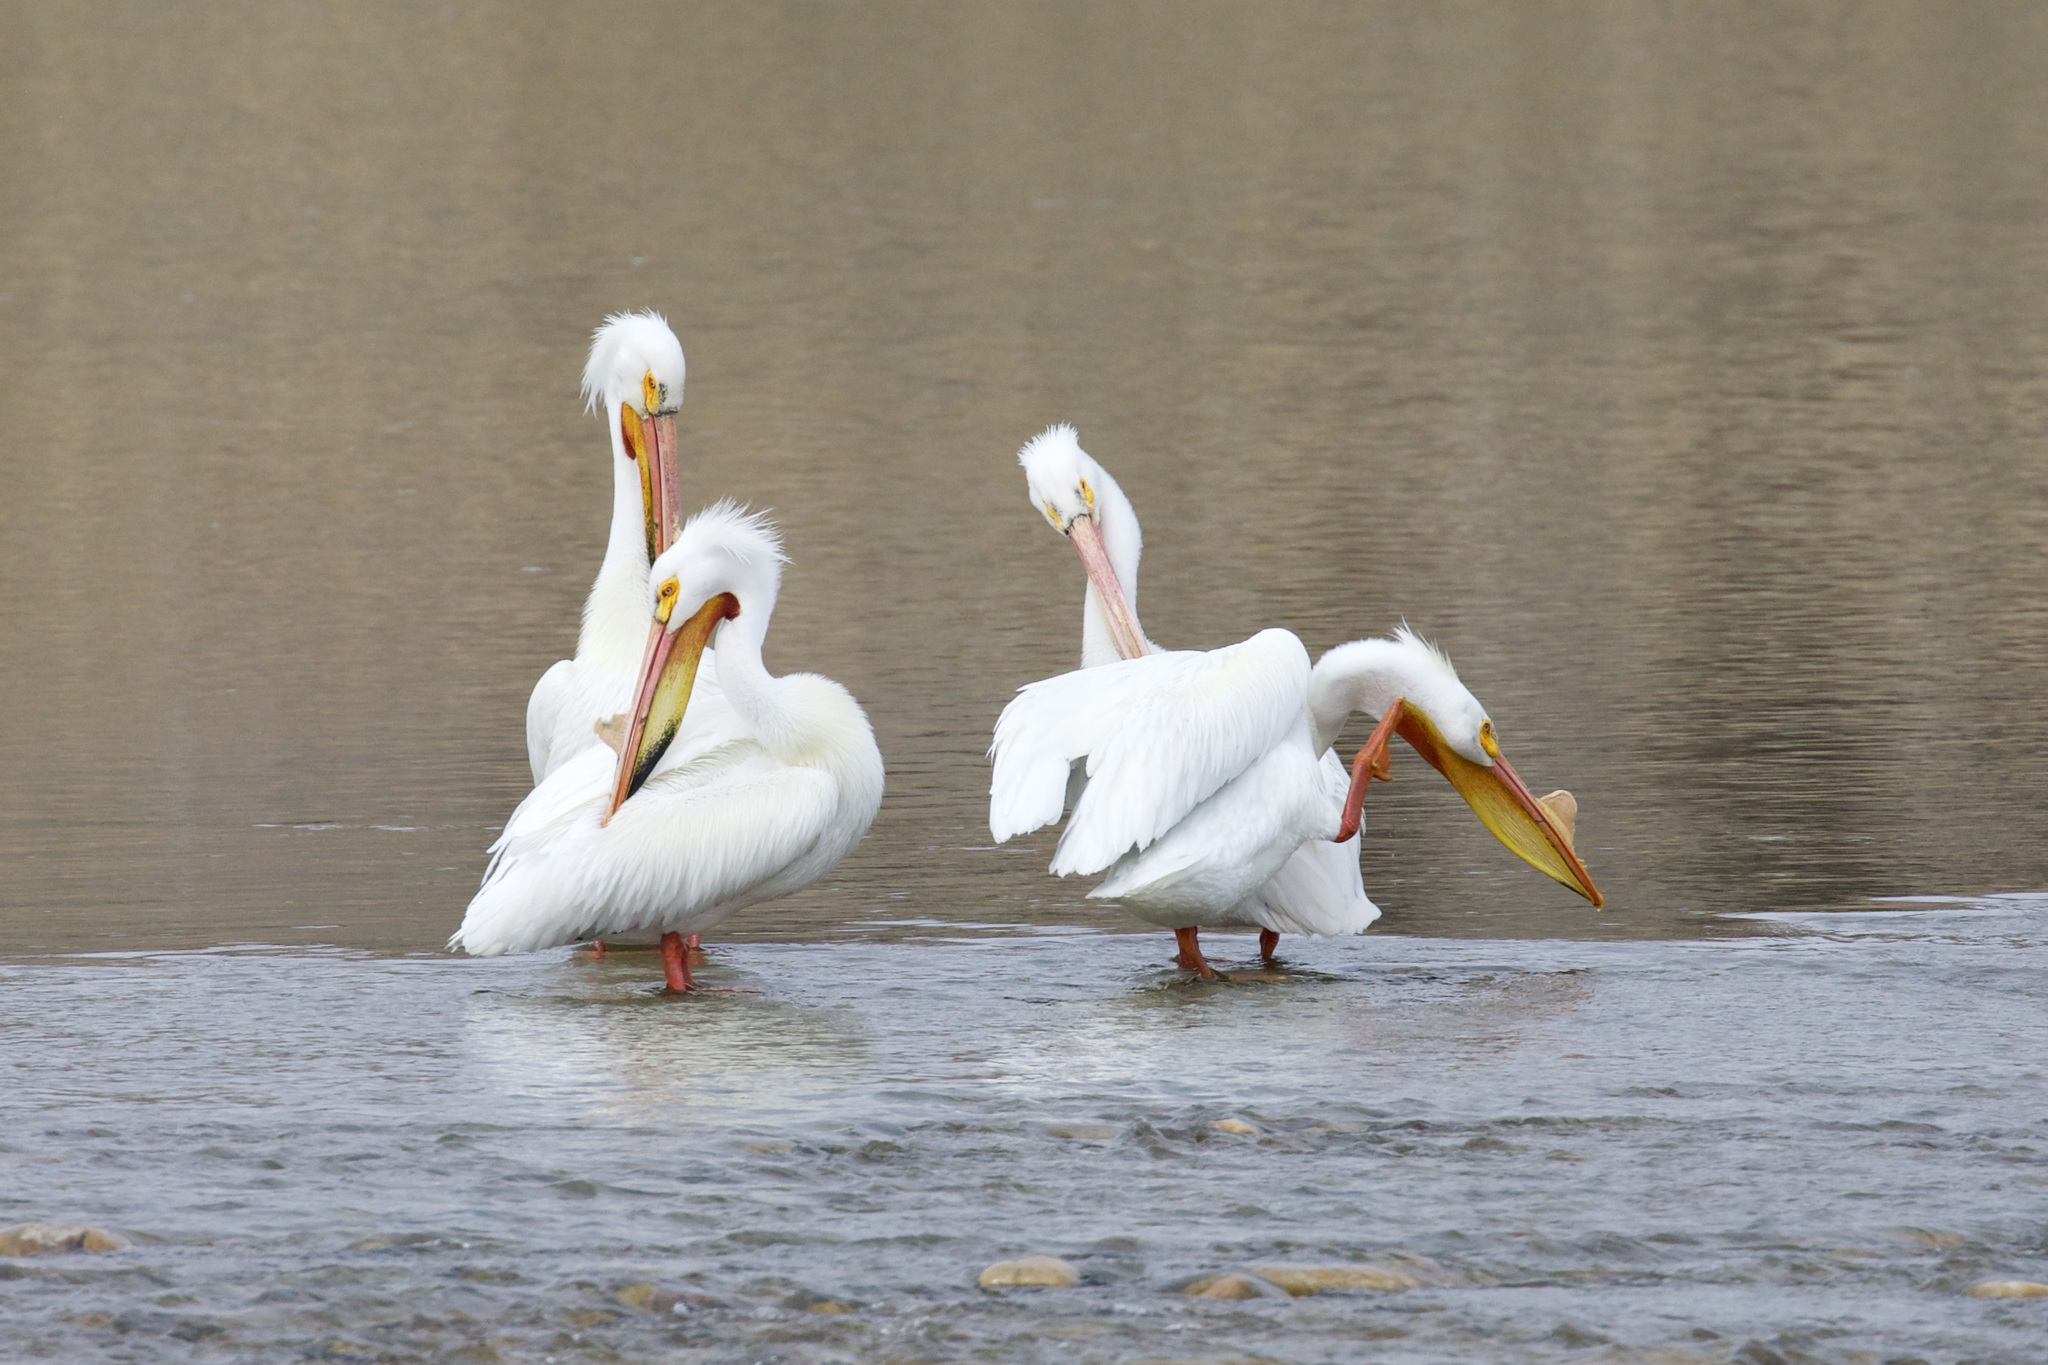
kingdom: Animalia
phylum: Chordata
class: Aves
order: Pelecaniformes
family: Pelecanidae
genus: Pelecanus
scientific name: Pelecanus erythrorhynchos
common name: American white pelican
